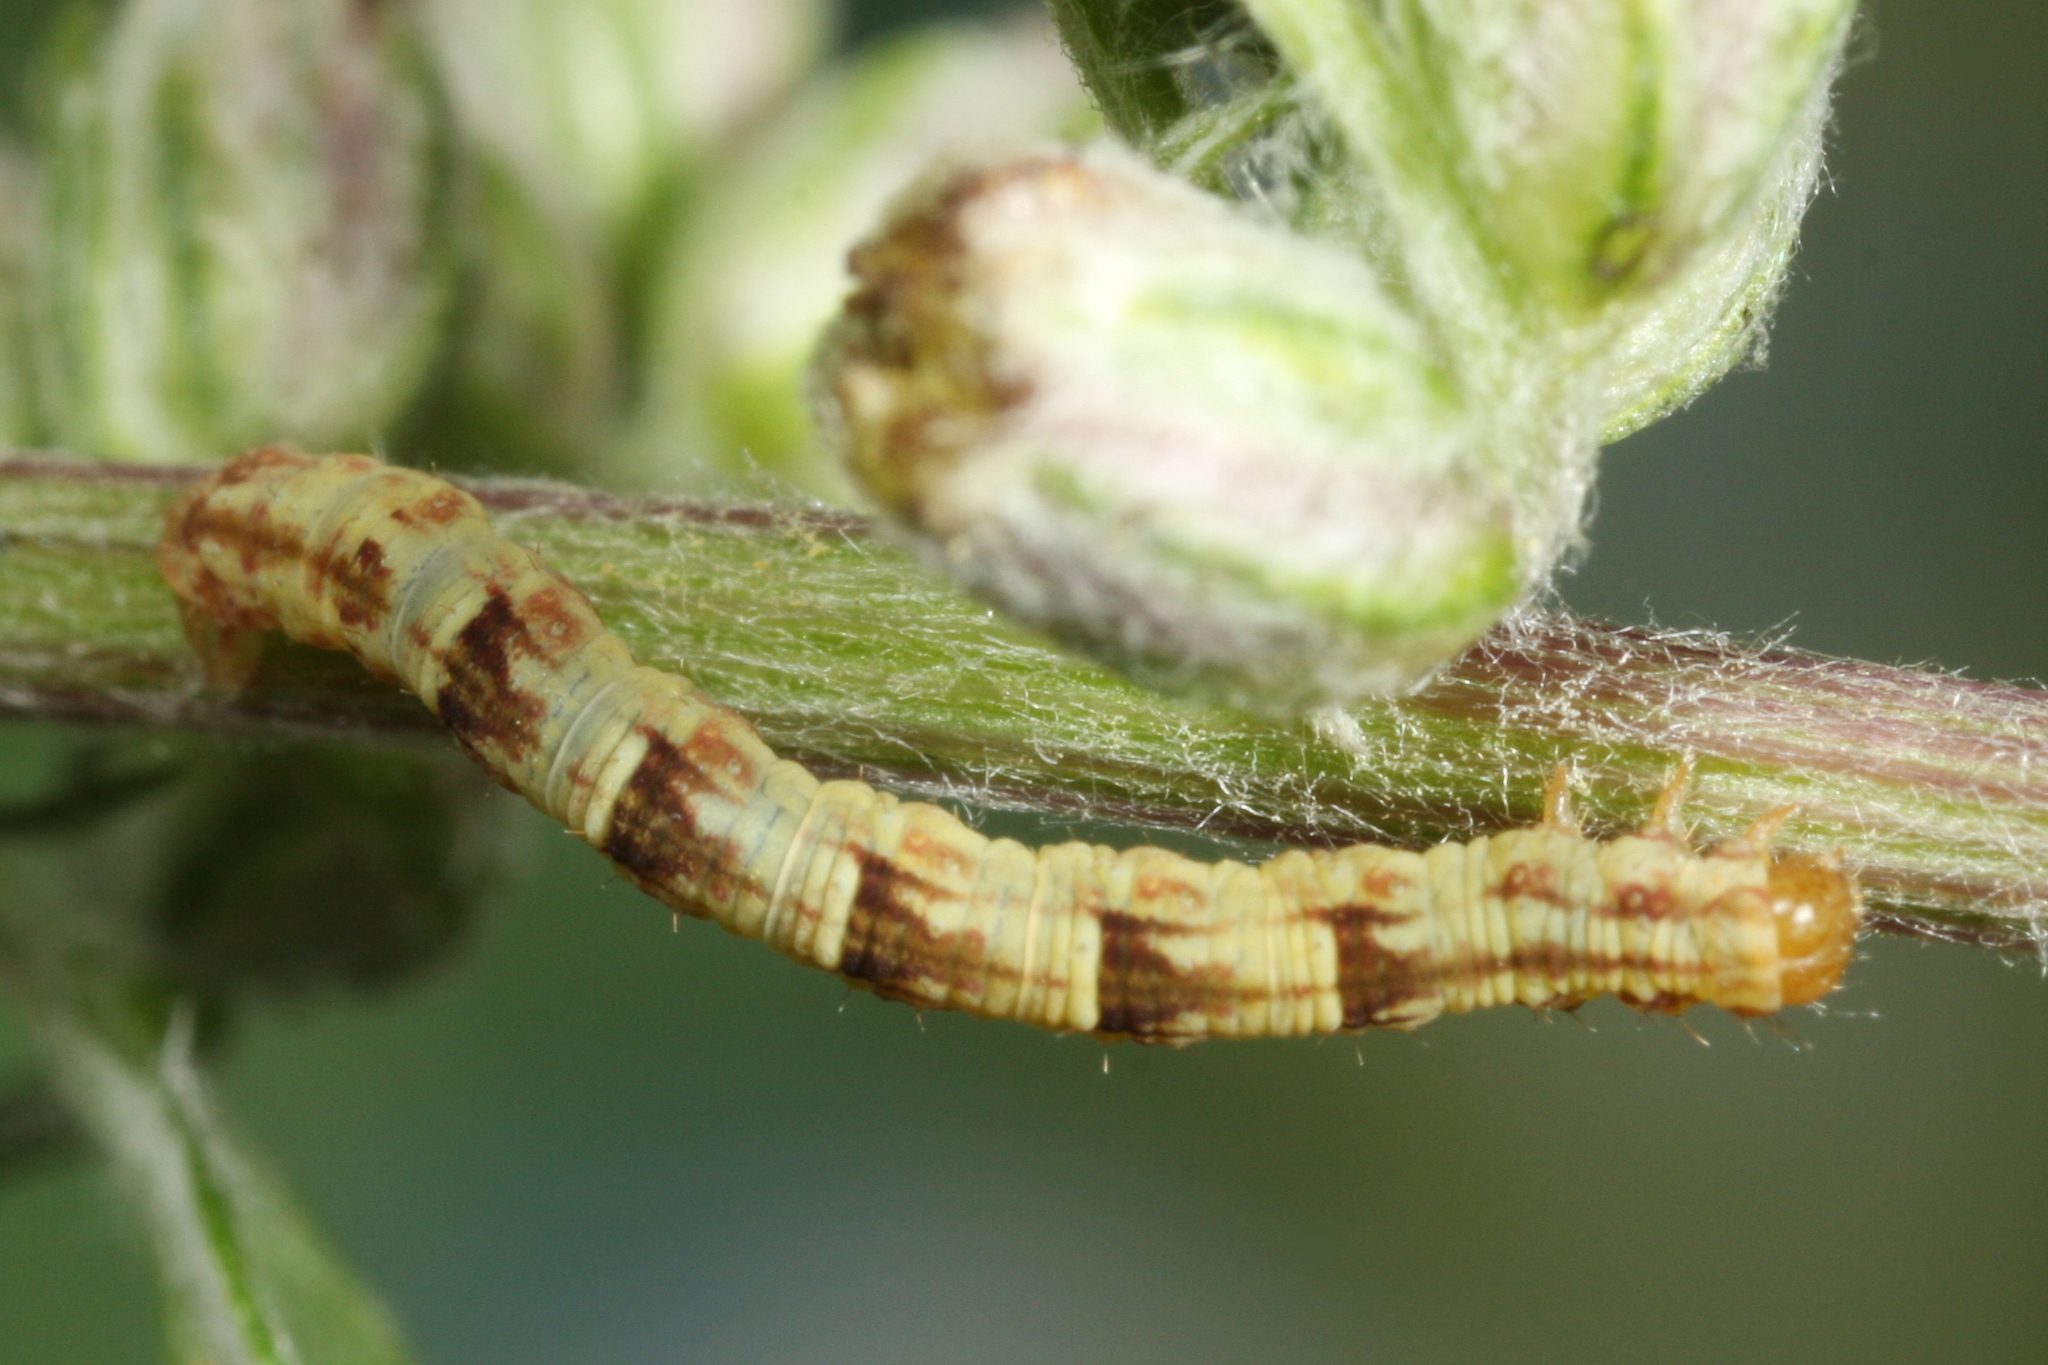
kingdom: Animalia
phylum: Arthropoda
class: Insecta
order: Lepidoptera
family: Geometridae
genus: Chloroclystis
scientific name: Chloroclystis v-ata
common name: V-pug
